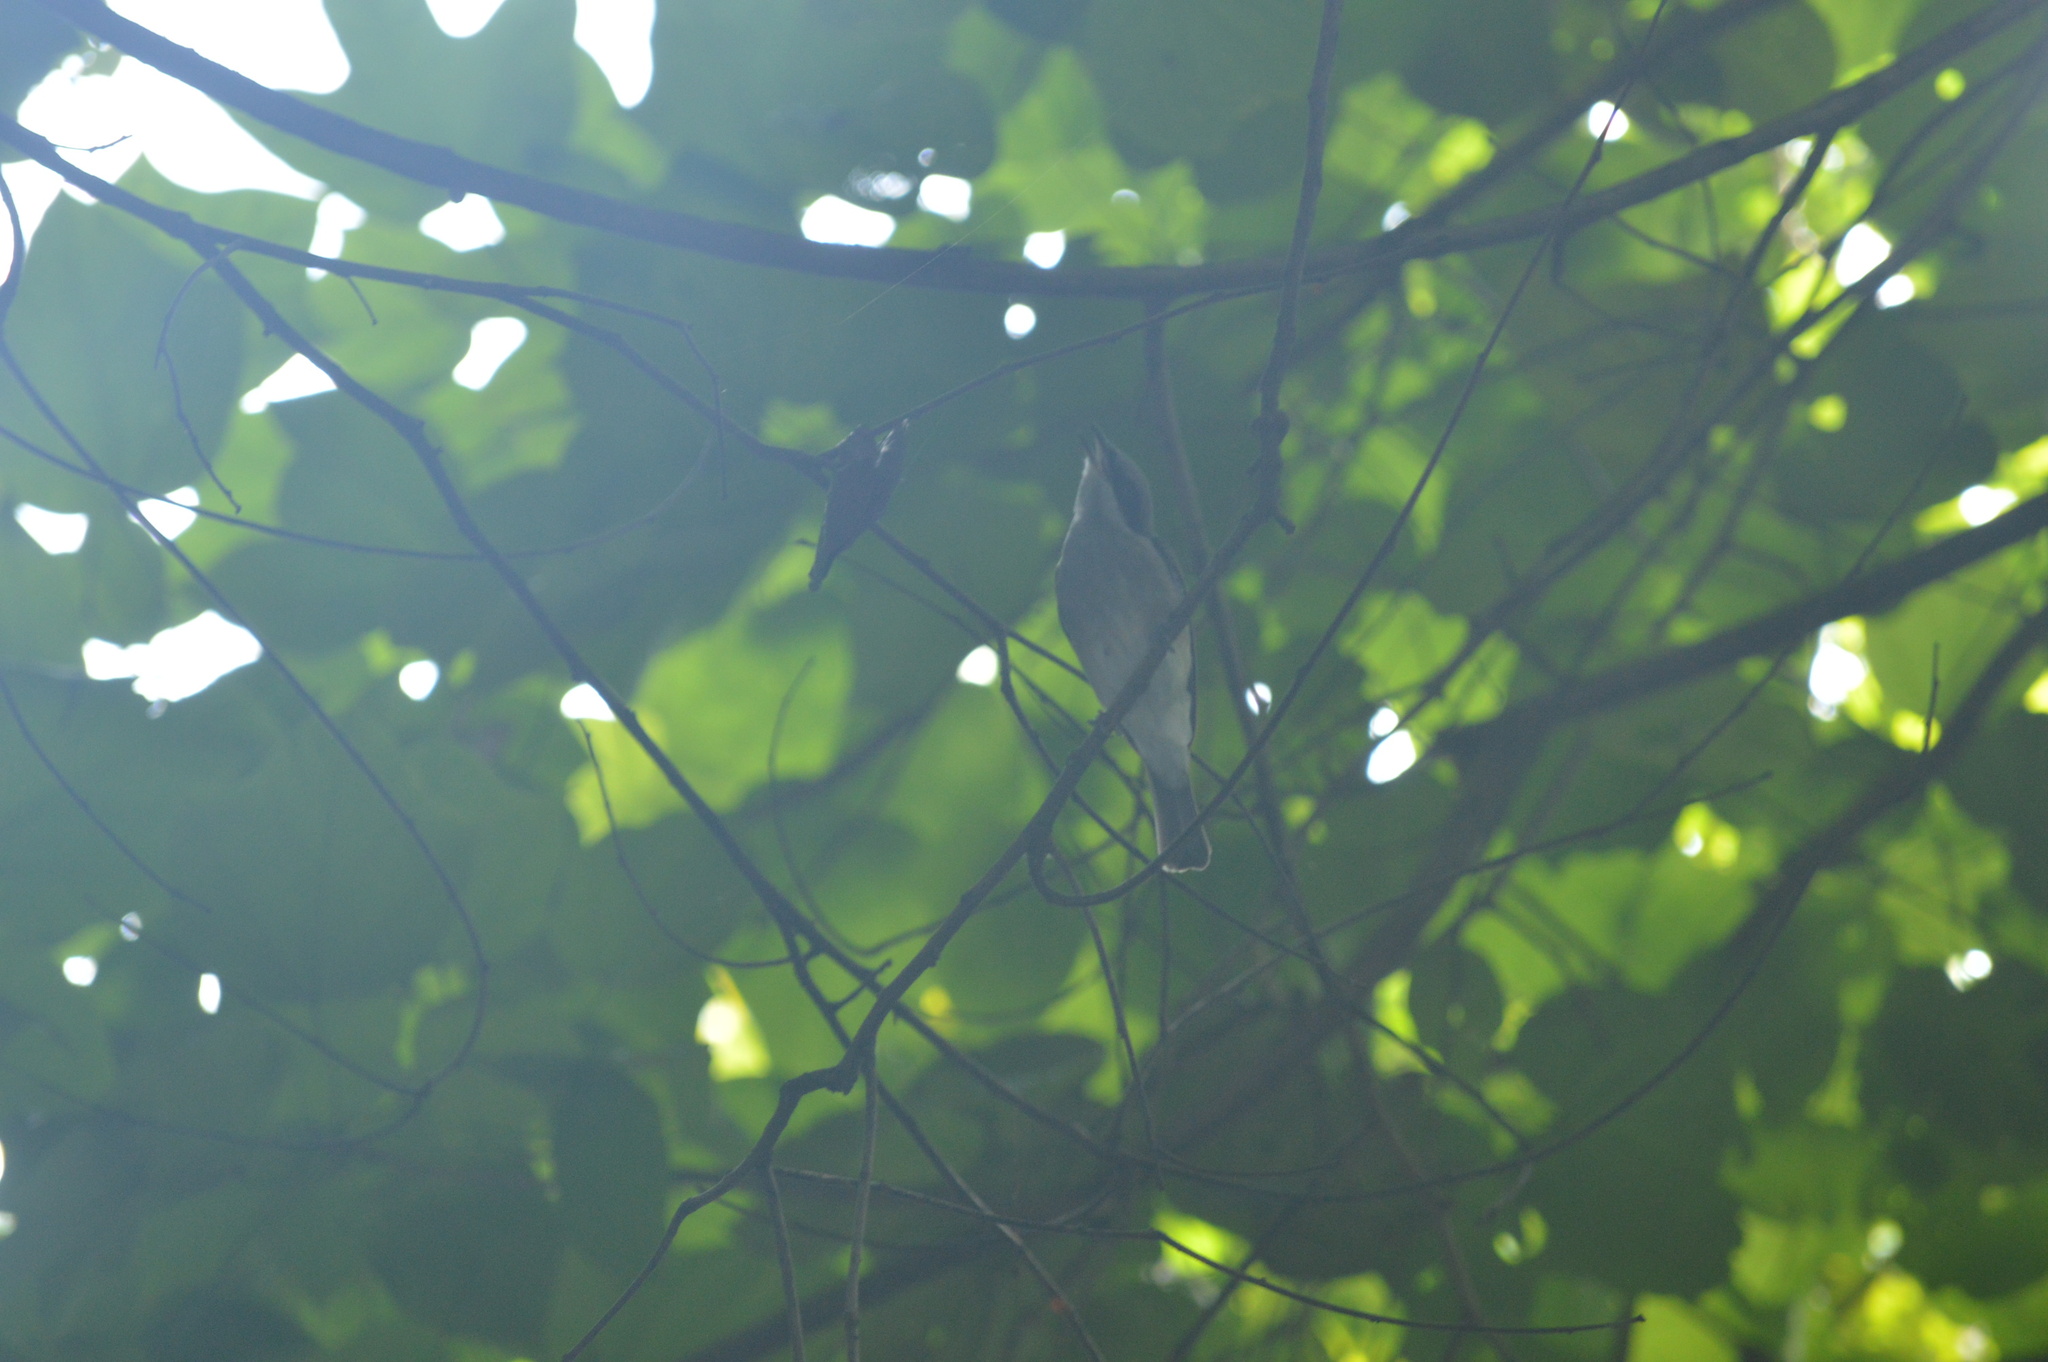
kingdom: Animalia
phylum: Chordata
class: Aves
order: Passeriformes
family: Tephrodornithidae
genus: Tephrodornis
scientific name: Tephrodornis virgatus
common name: Large woodshrike
